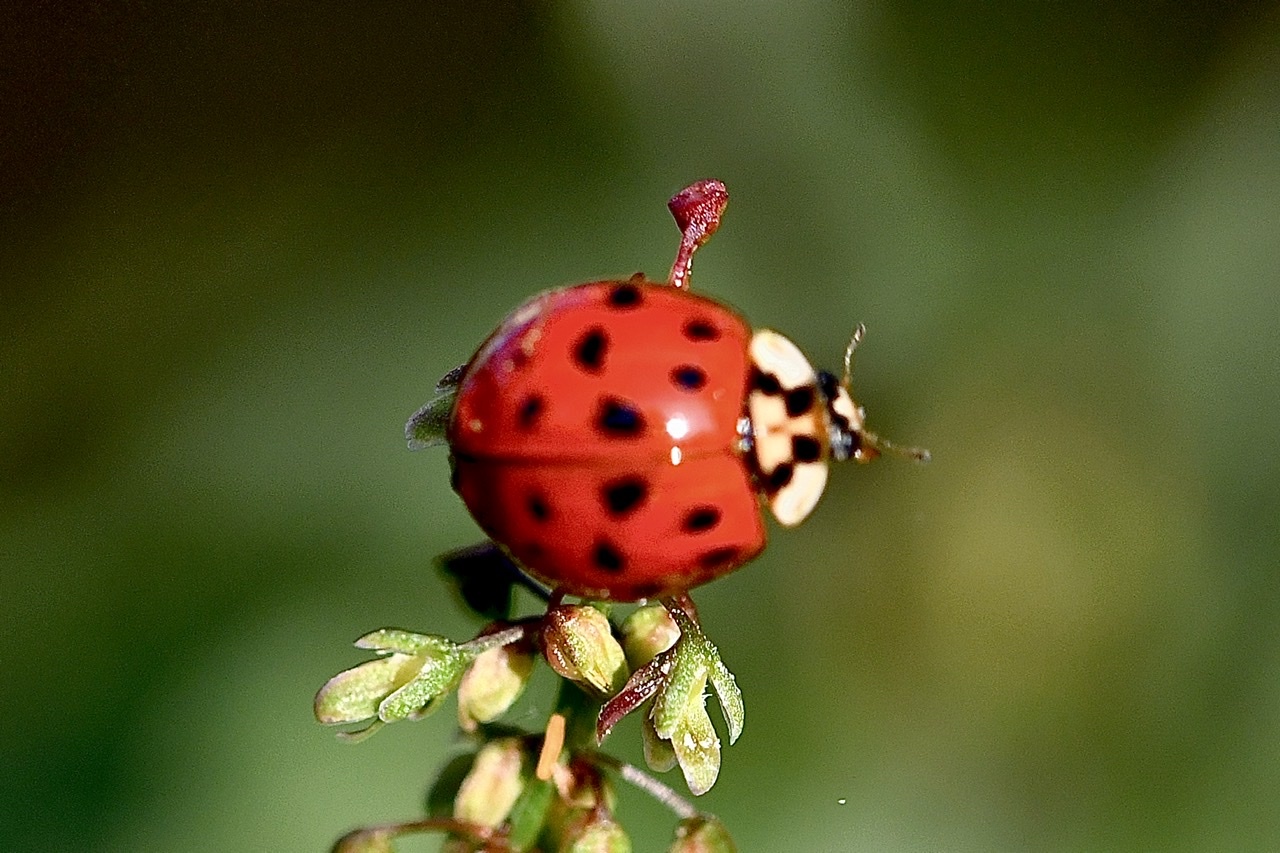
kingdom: Animalia
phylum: Arthropoda
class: Insecta
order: Coleoptera
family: Coccinellidae
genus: Harmonia
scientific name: Harmonia axyridis
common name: Harlequin ladybird
